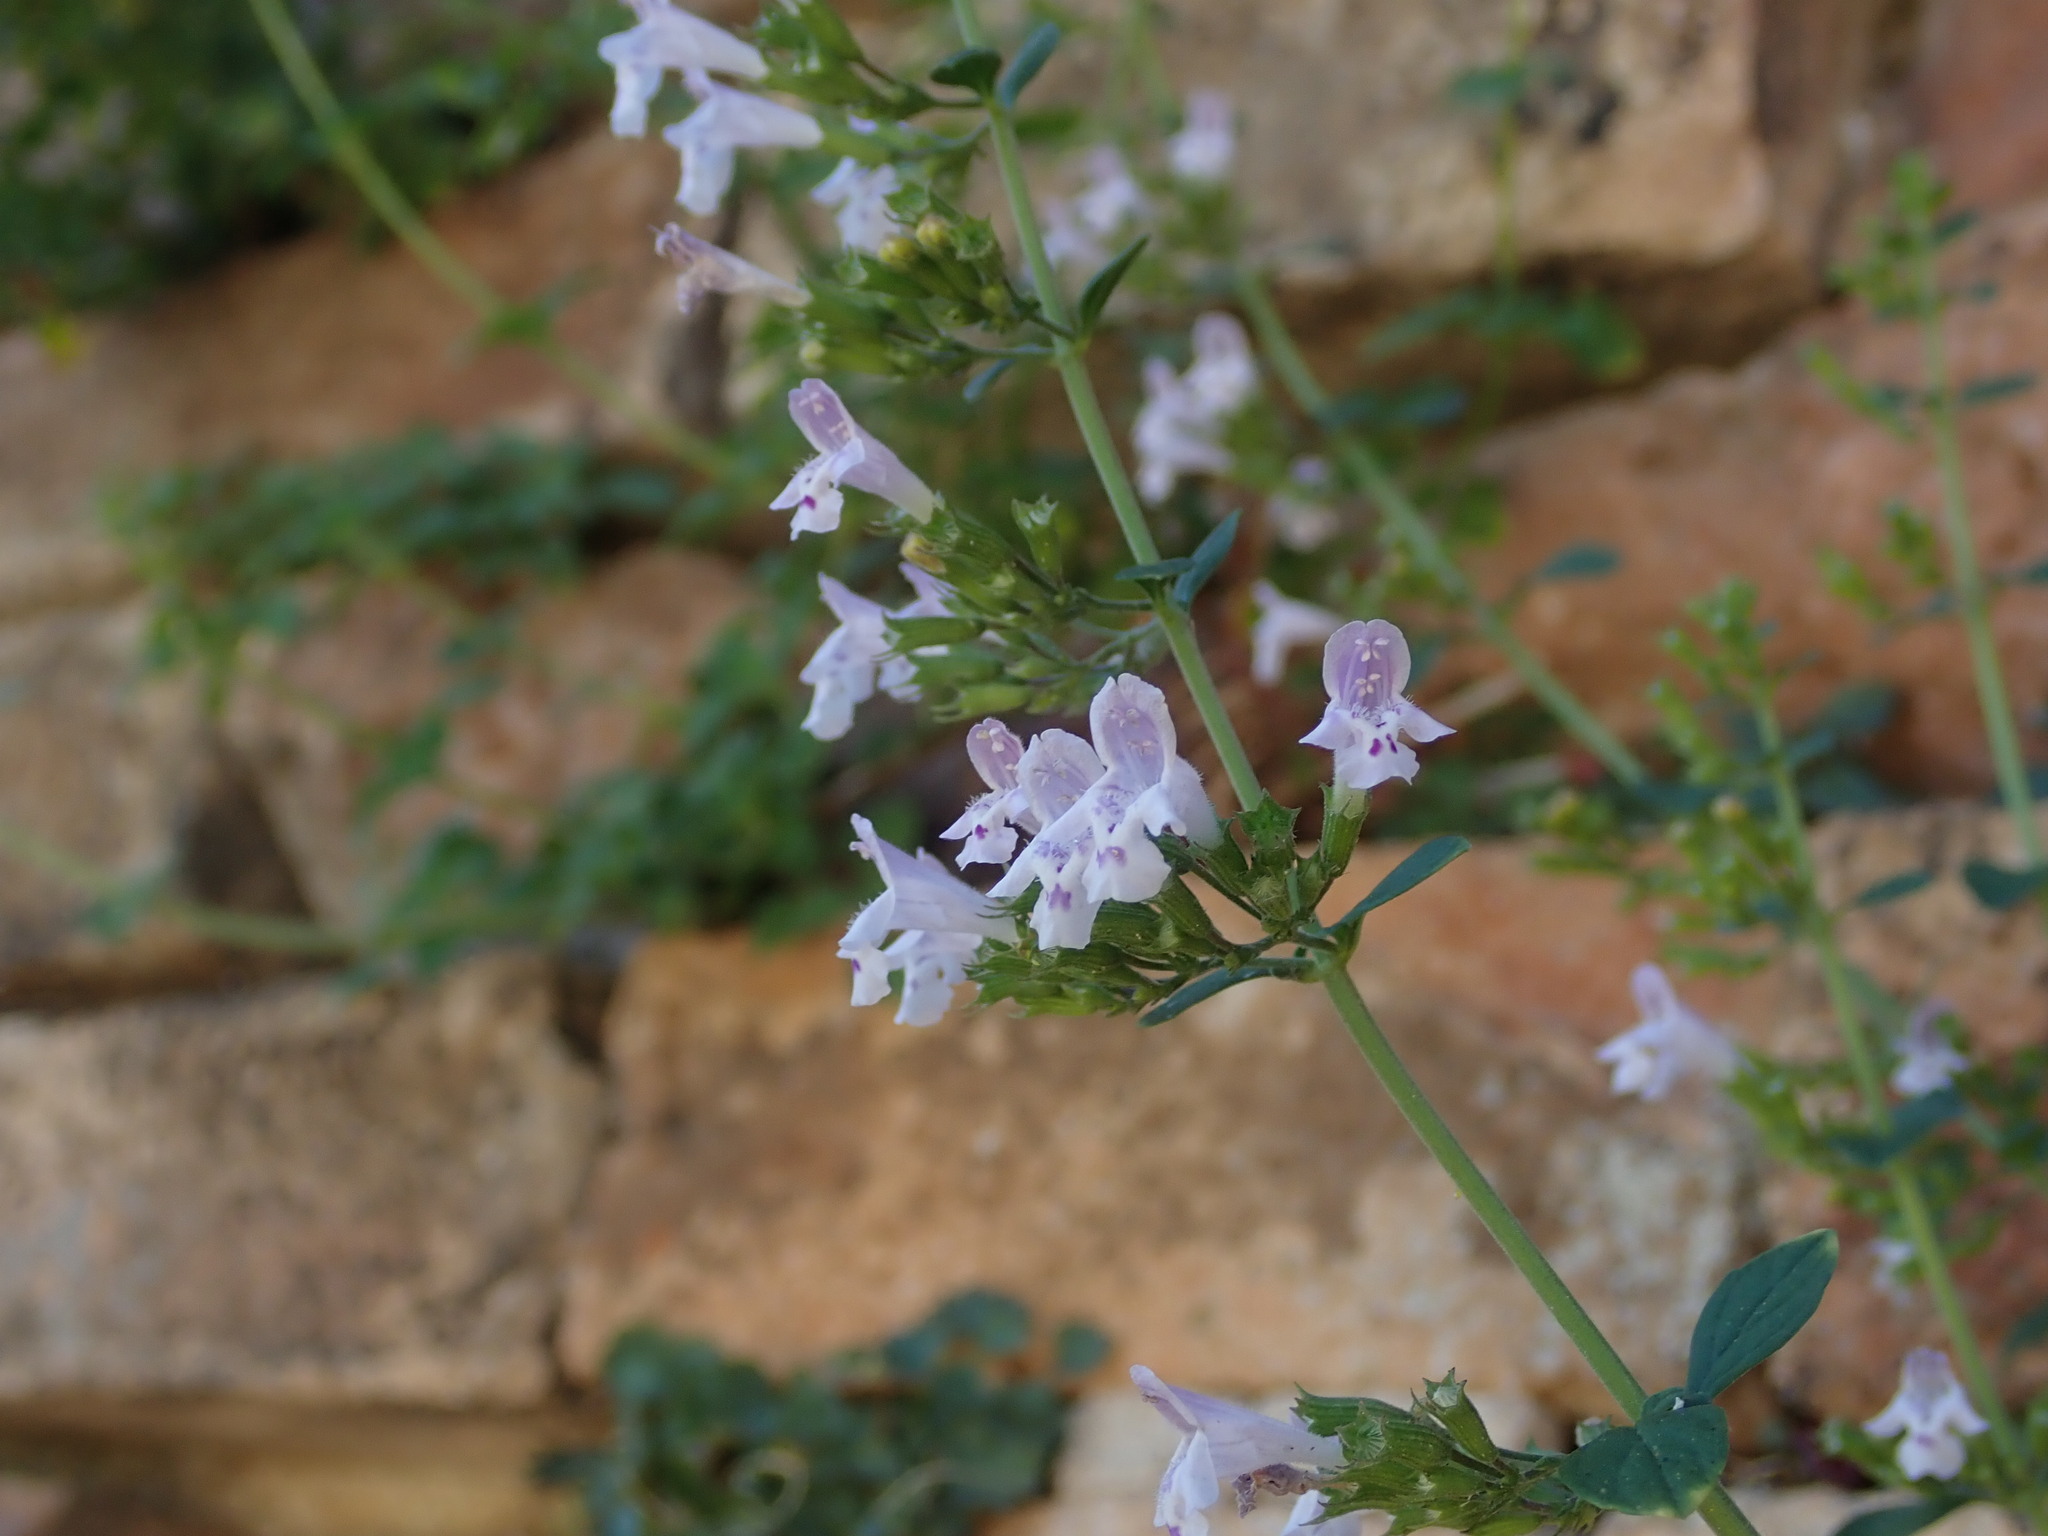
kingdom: Plantae
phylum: Tracheophyta
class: Magnoliopsida
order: Lamiales
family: Lamiaceae
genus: Clinopodium
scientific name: Clinopodium nepeta
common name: Lesser calamint
